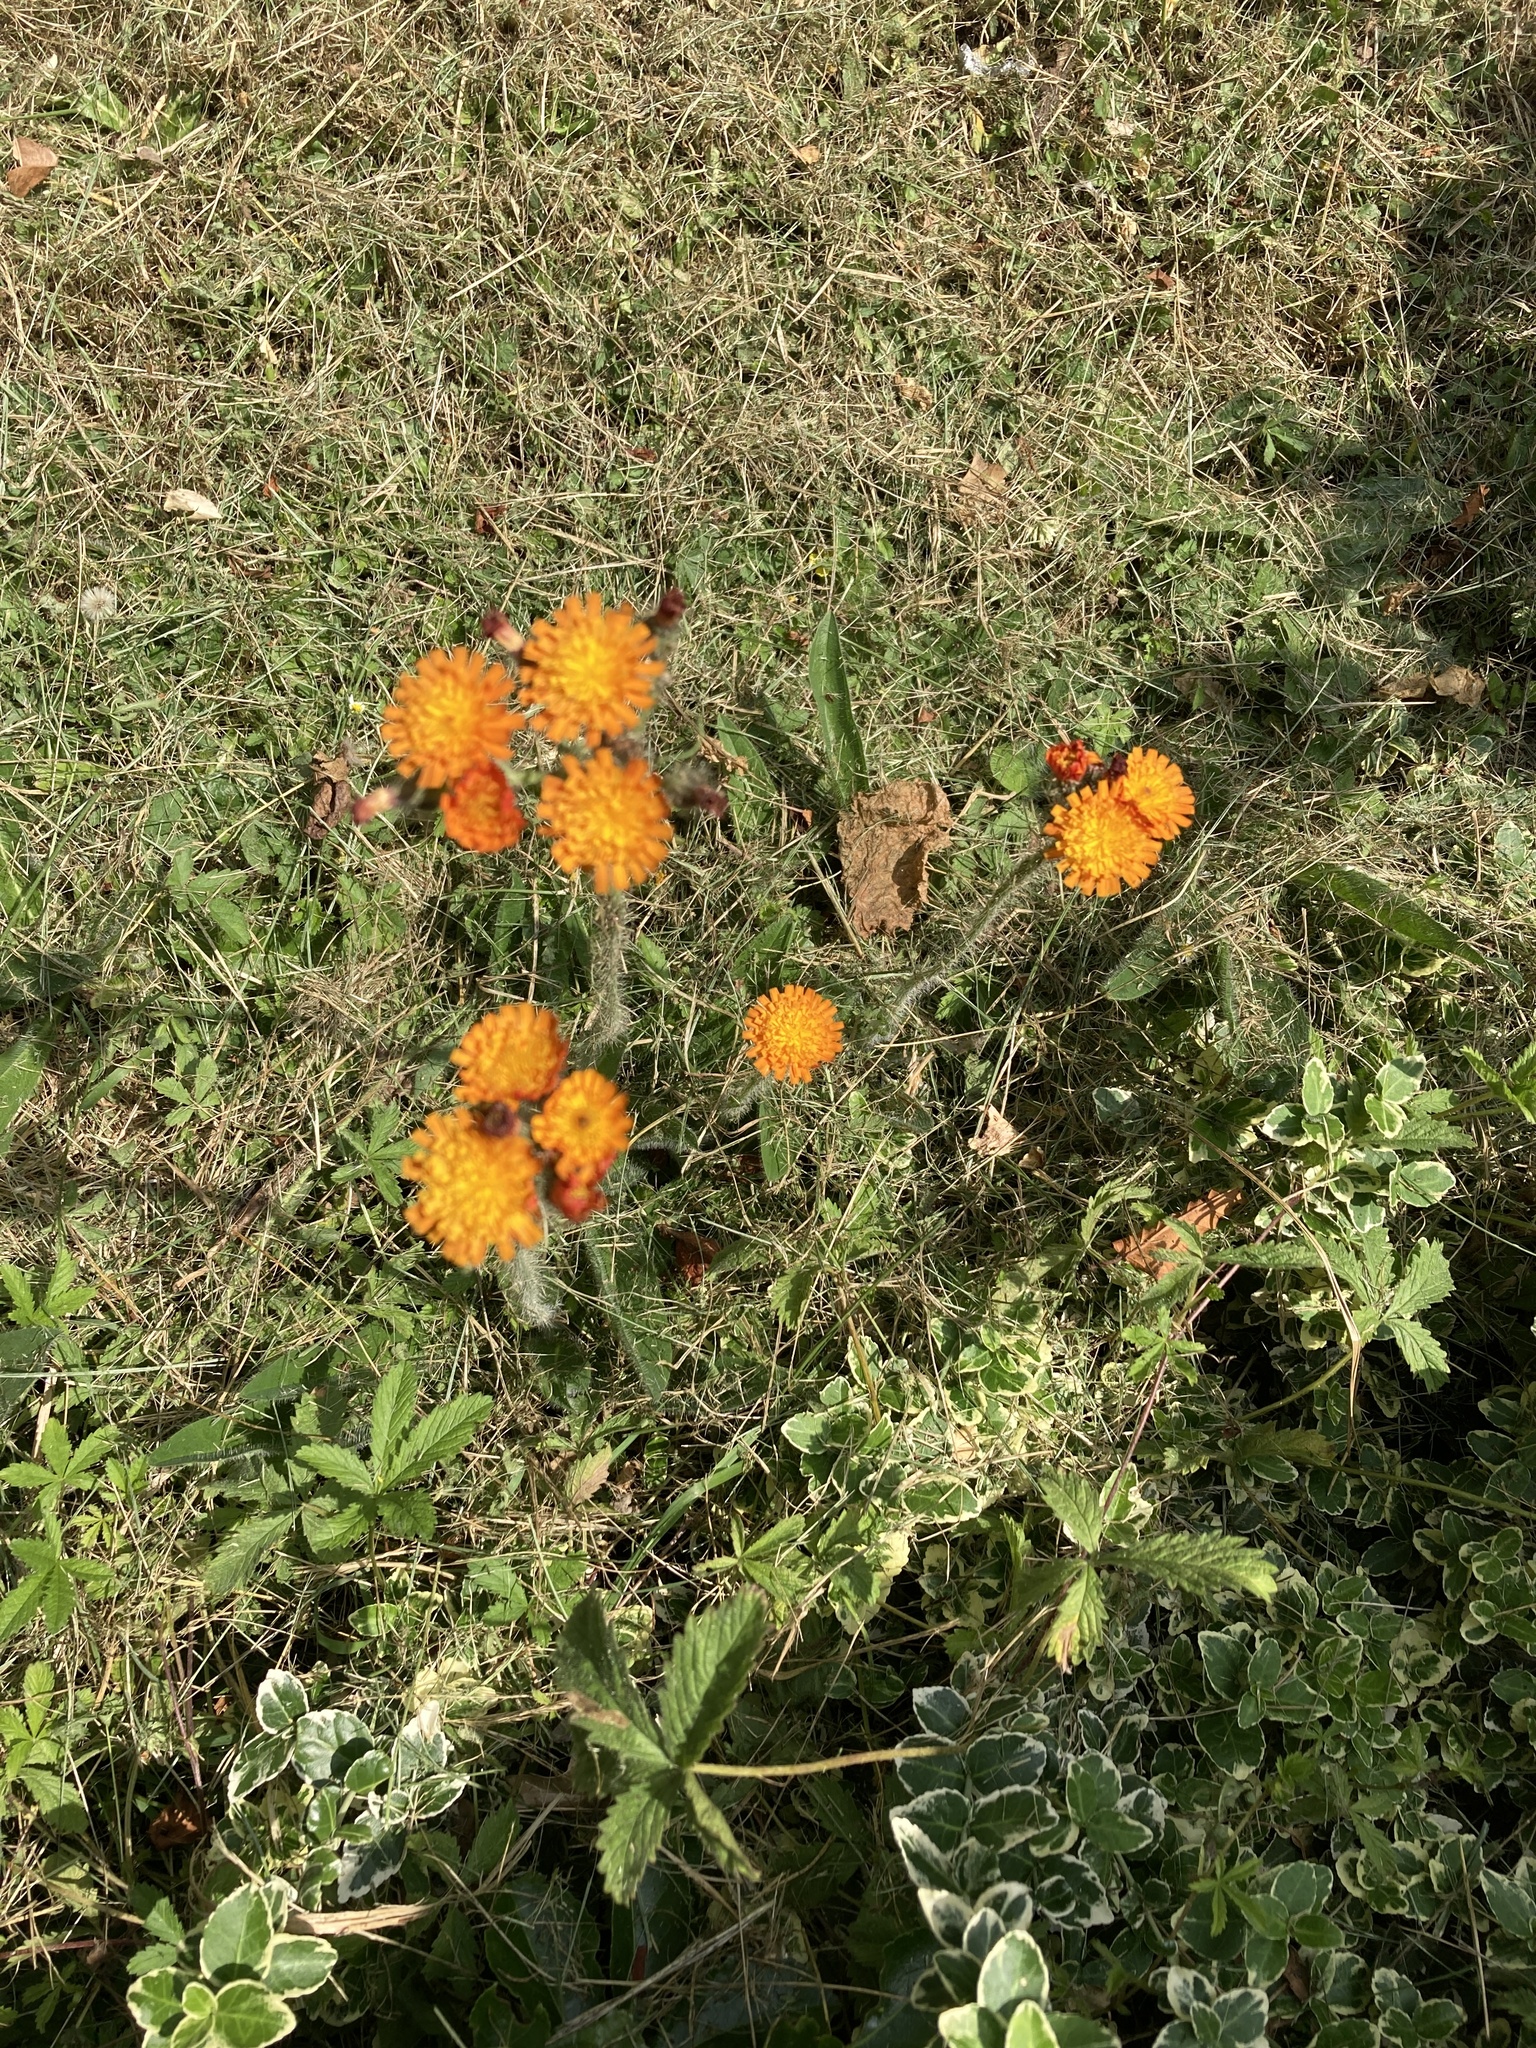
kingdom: Plantae
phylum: Tracheophyta
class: Magnoliopsida
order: Asterales
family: Asteraceae
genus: Pilosella
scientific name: Pilosella aurantiaca
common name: Fox-and-cubs
